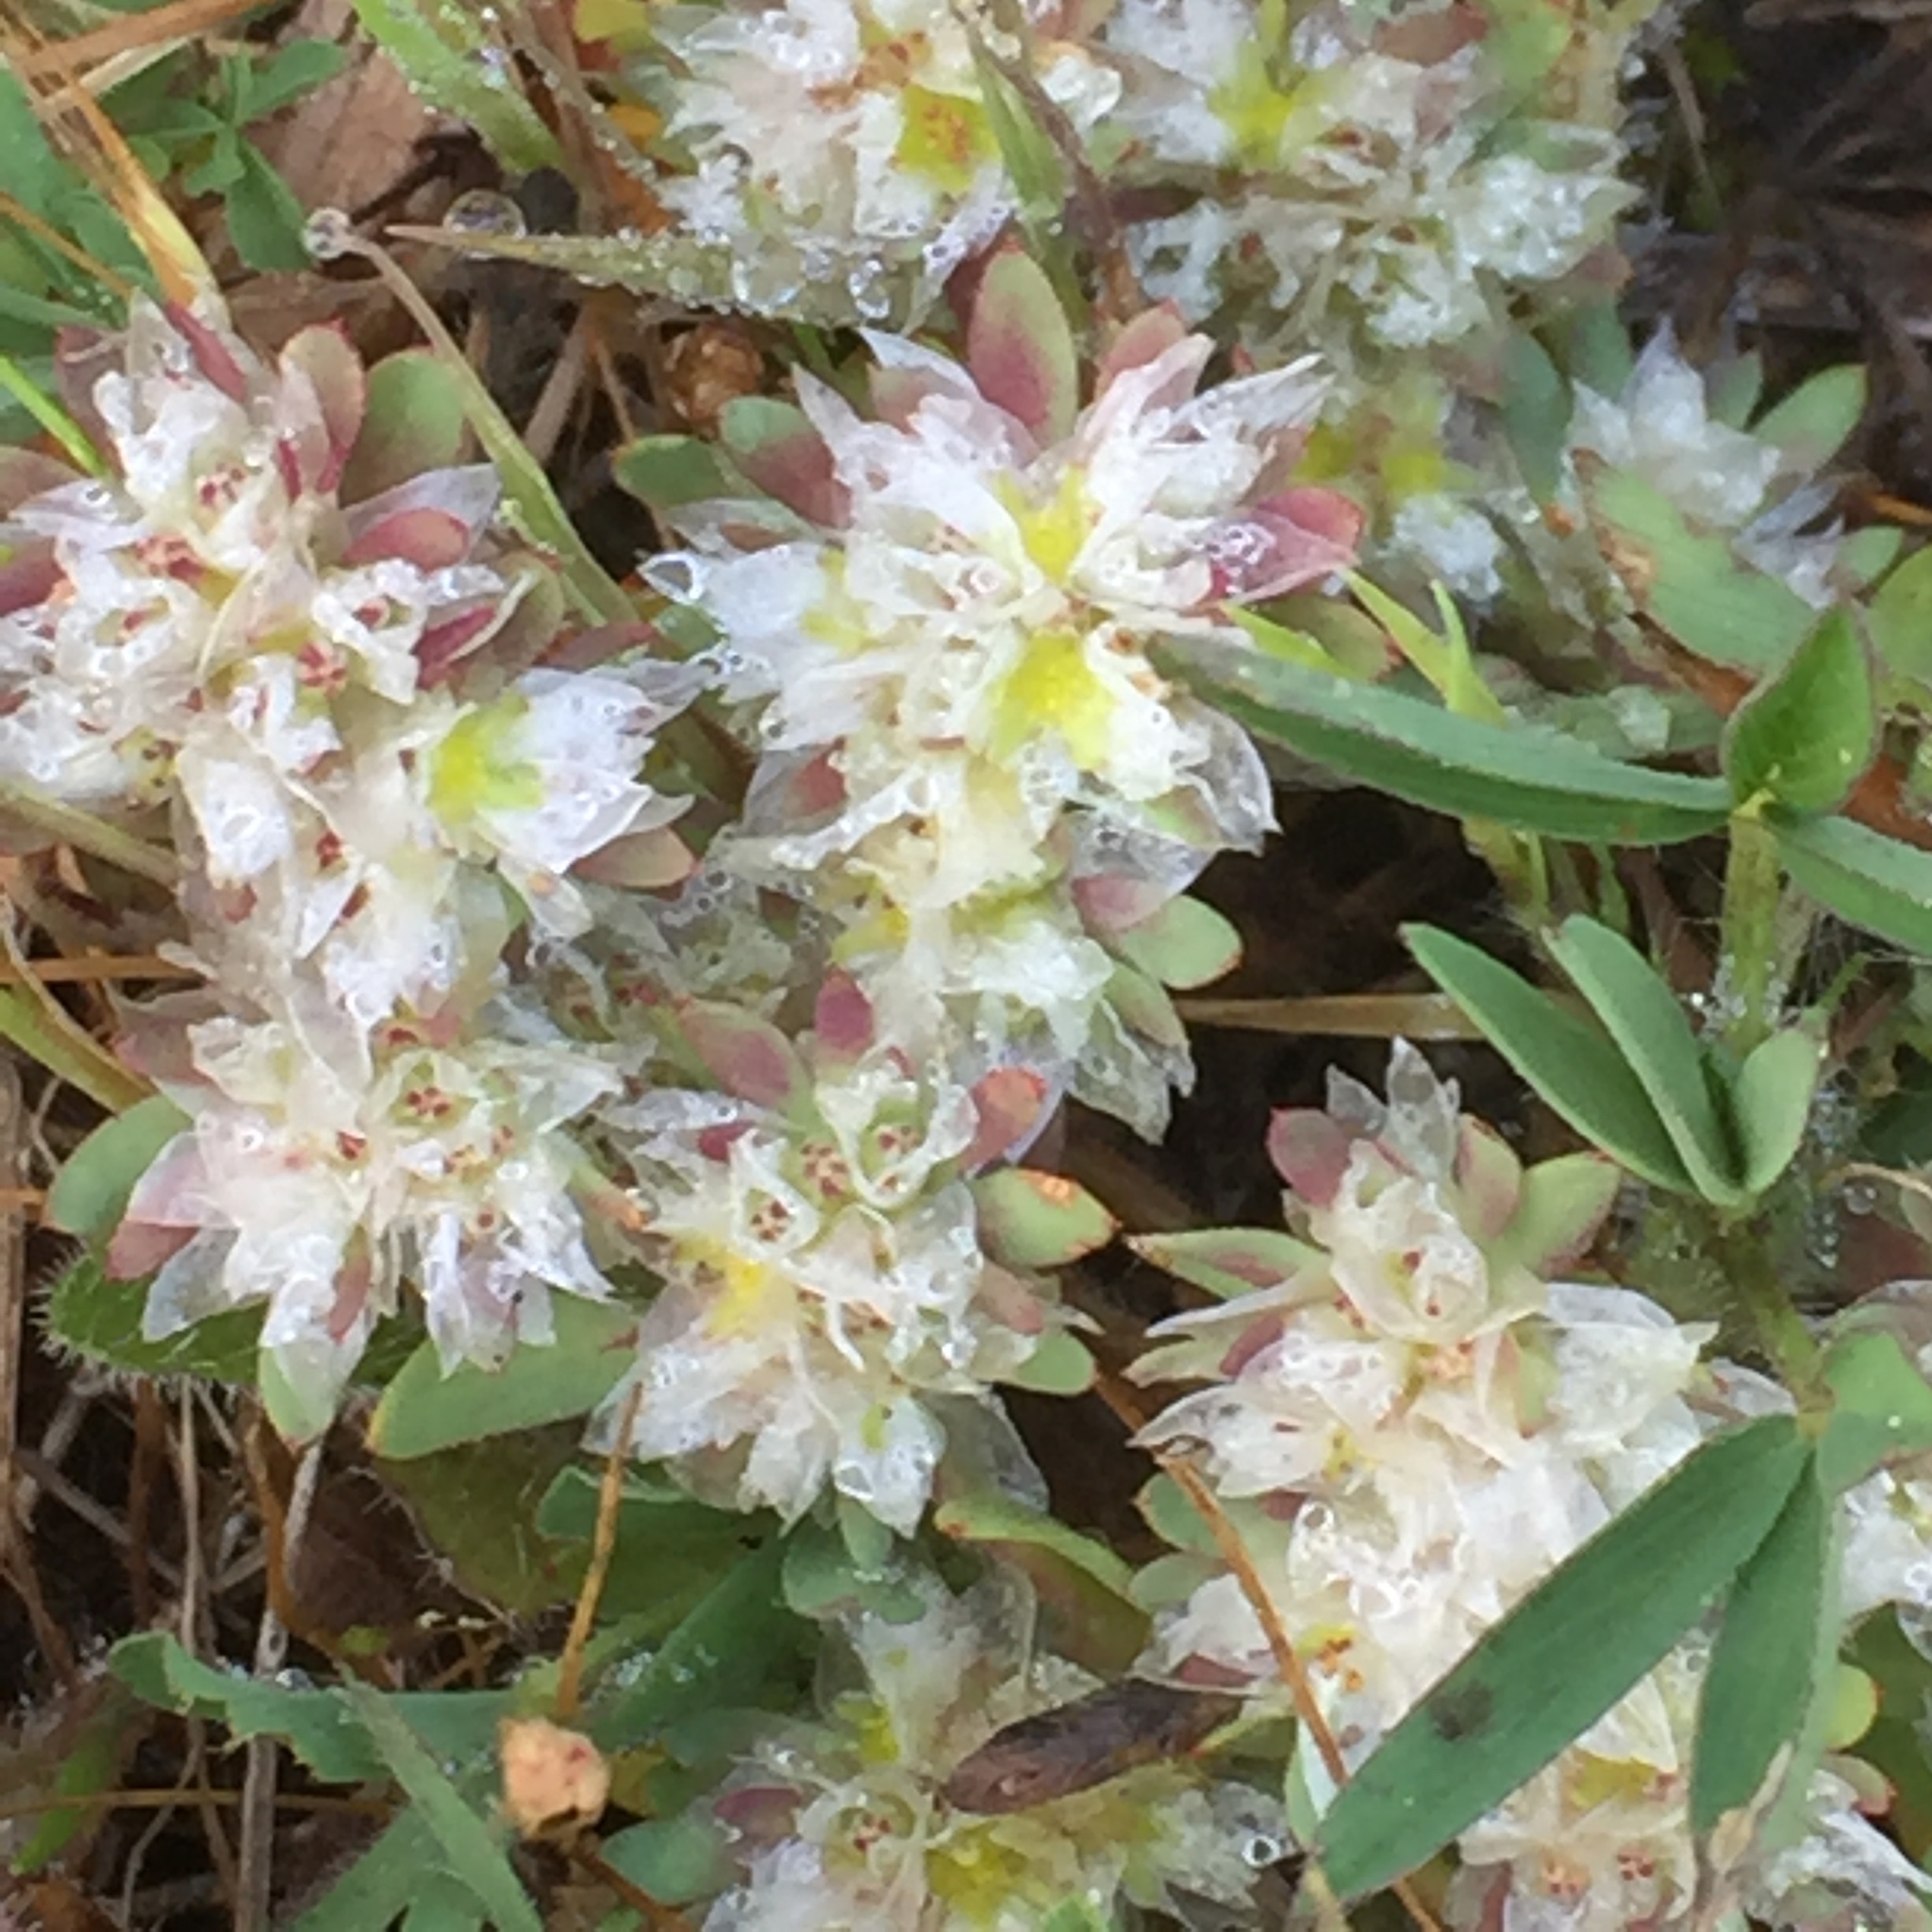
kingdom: Plantae
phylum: Tracheophyta
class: Magnoliopsida
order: Caryophyllales
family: Caryophyllaceae
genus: Paronychia
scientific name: Paronychia argentea
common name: Silver nailroot
